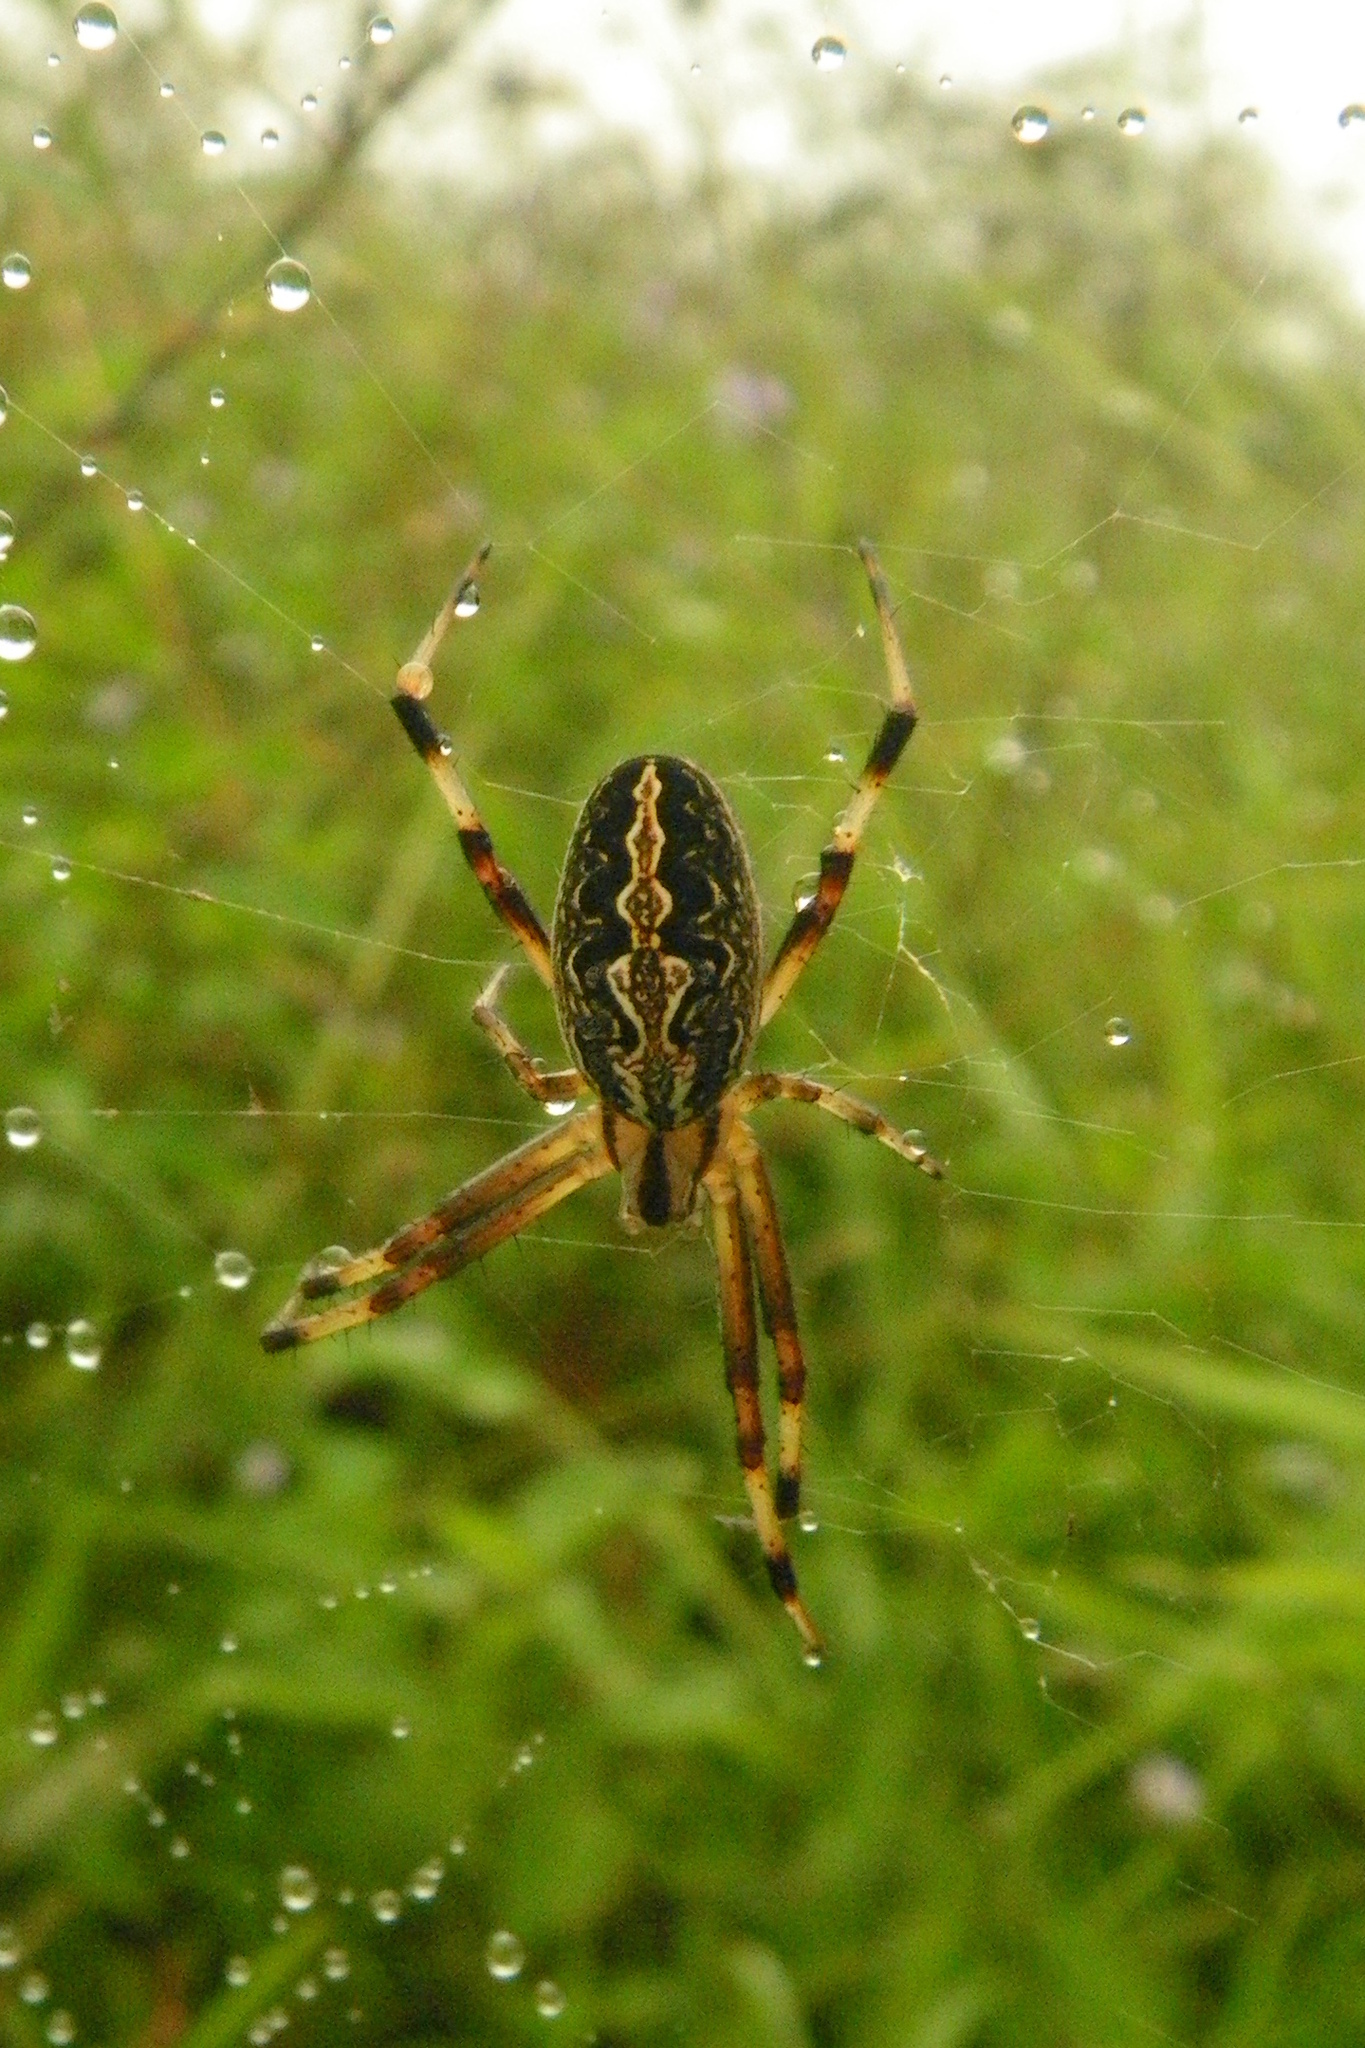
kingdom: Animalia
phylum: Arthropoda
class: Arachnida
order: Araneae
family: Araneidae
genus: Neoscona
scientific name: Neoscona oaxacensis
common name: Orb weavers
